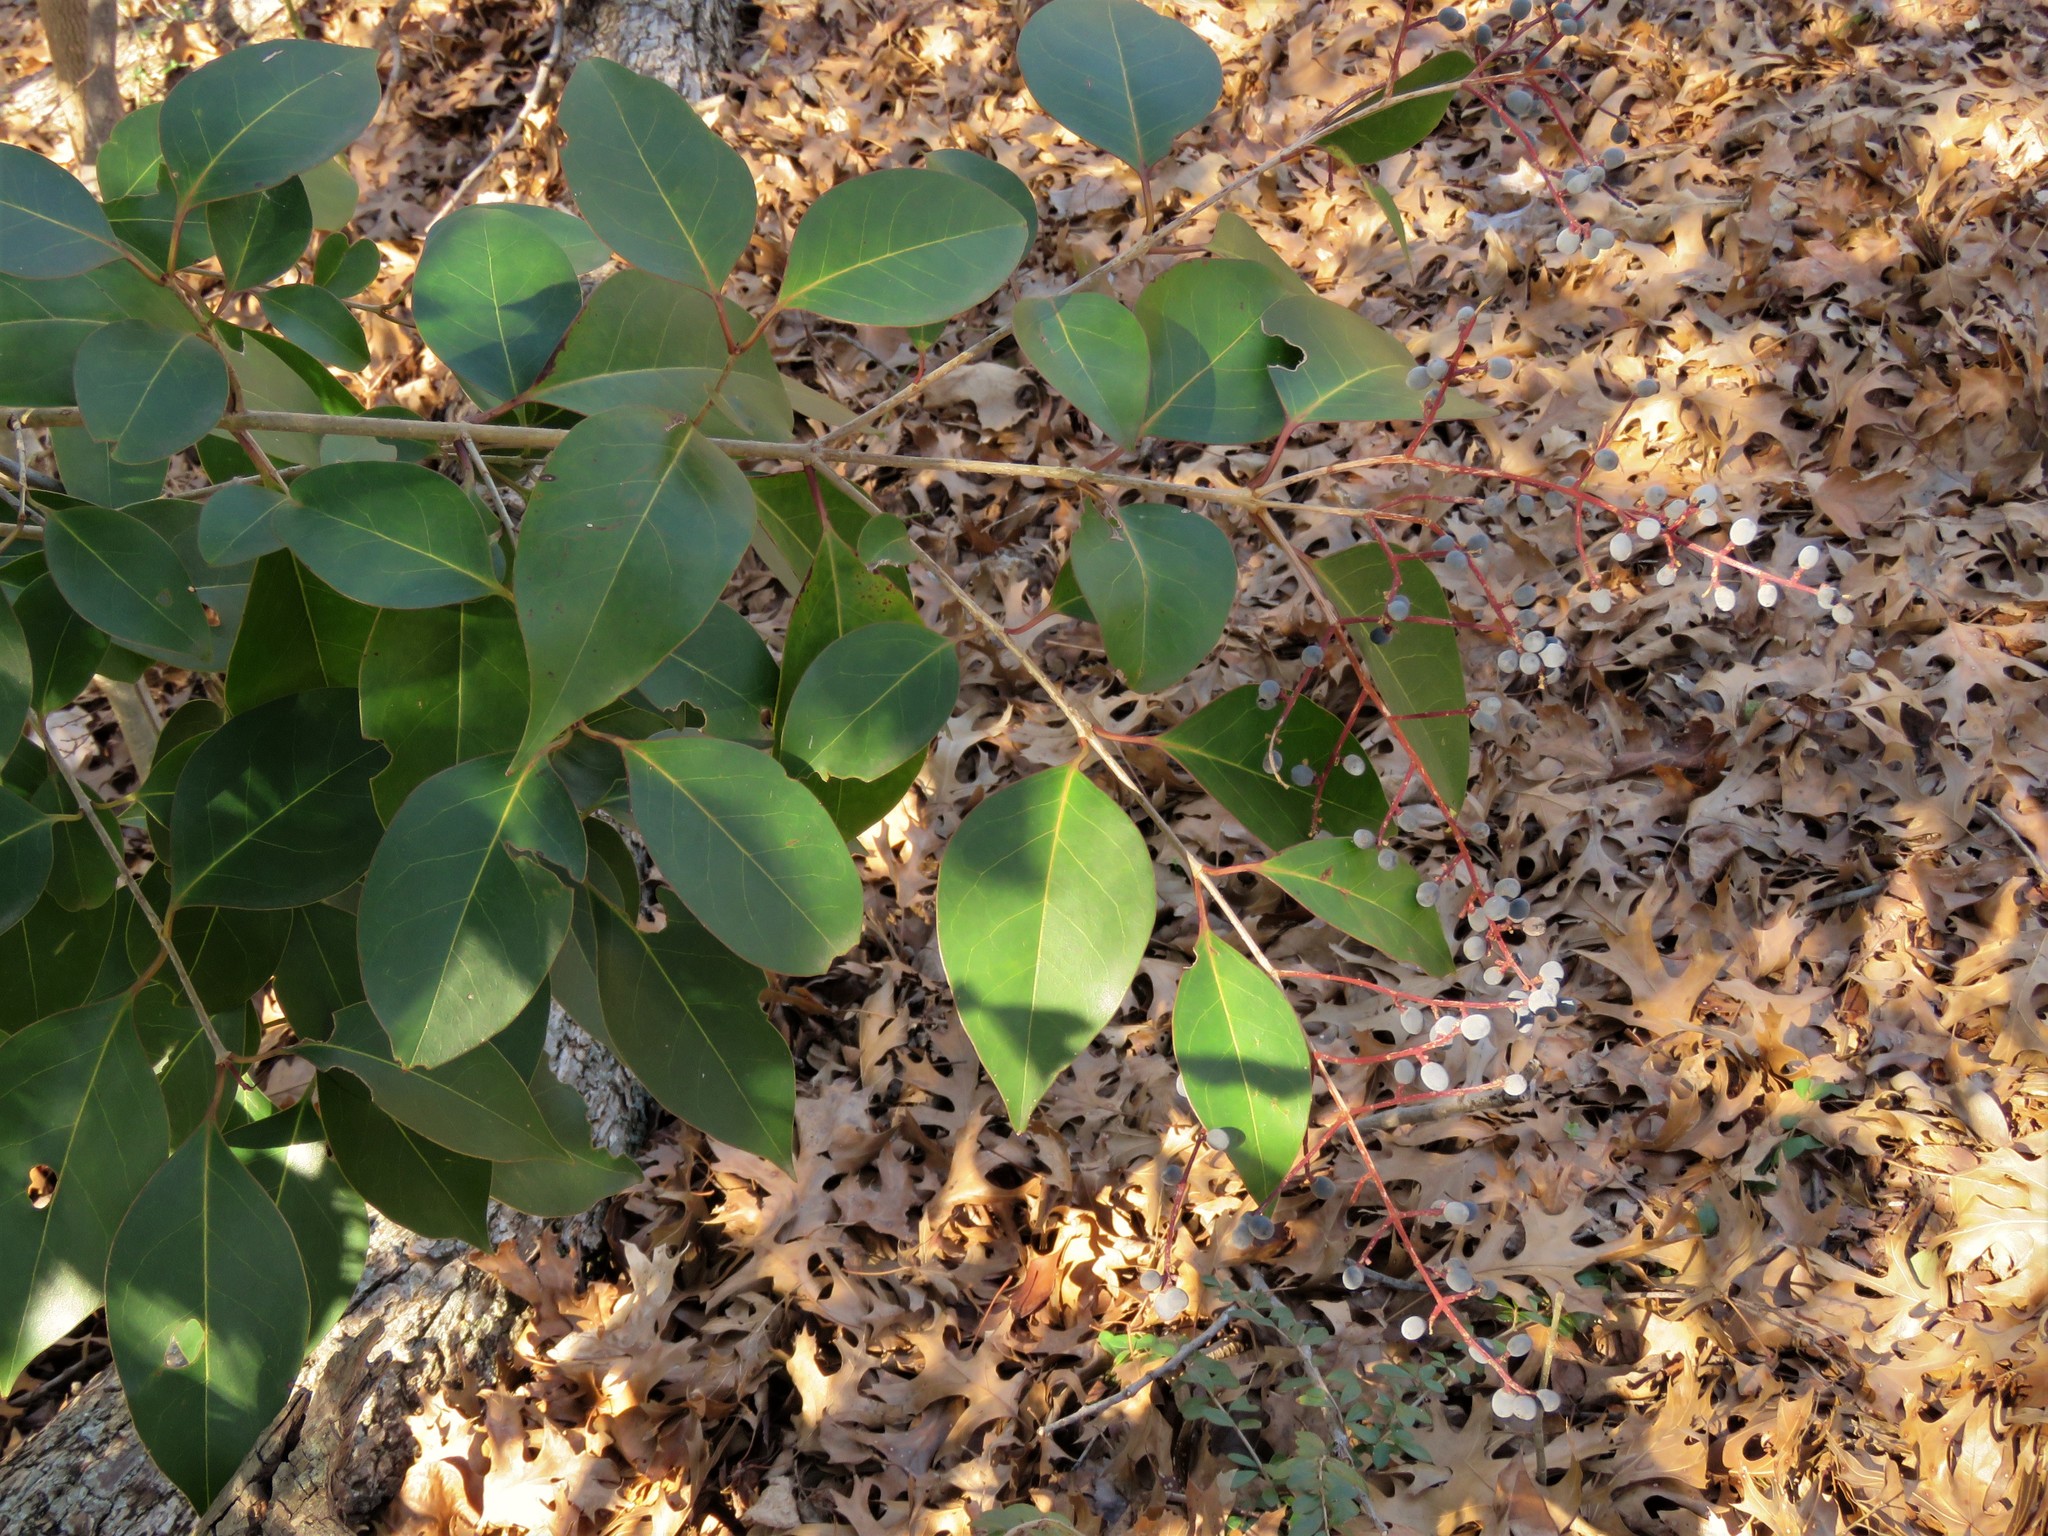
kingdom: Plantae
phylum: Tracheophyta
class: Magnoliopsida
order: Lamiales
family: Oleaceae
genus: Ligustrum
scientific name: Ligustrum lucidum
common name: Glossy privet
